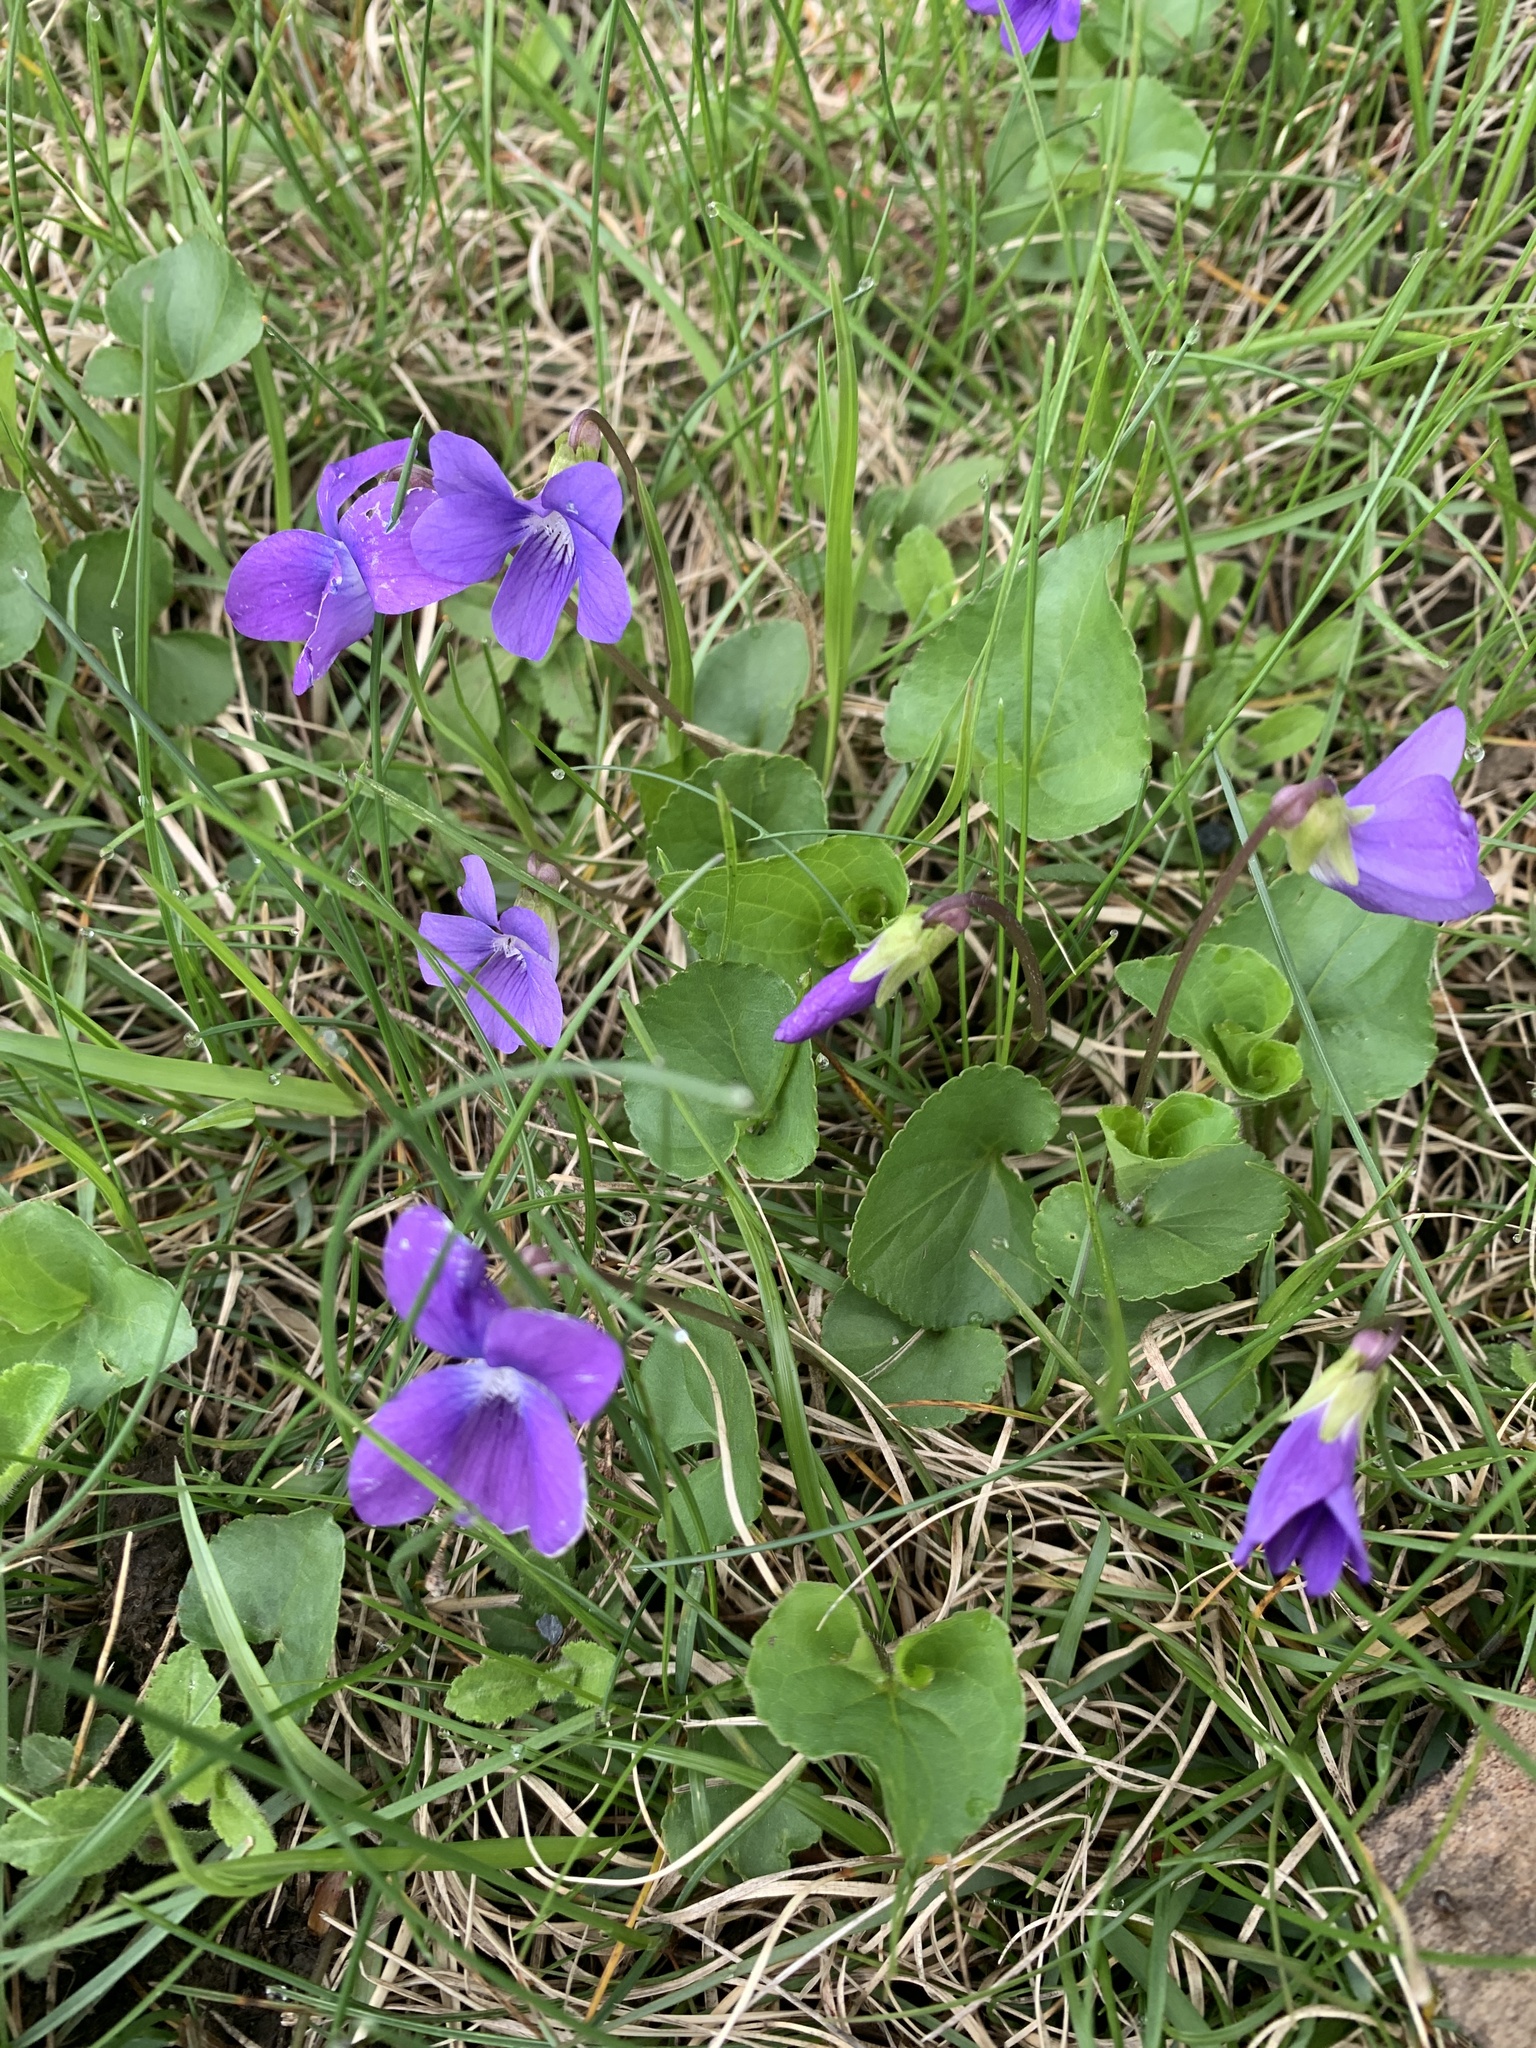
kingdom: Plantae
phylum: Tracheophyta
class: Magnoliopsida
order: Malpighiales
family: Violaceae
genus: Viola
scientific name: Viola sororia
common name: Dooryard violet
